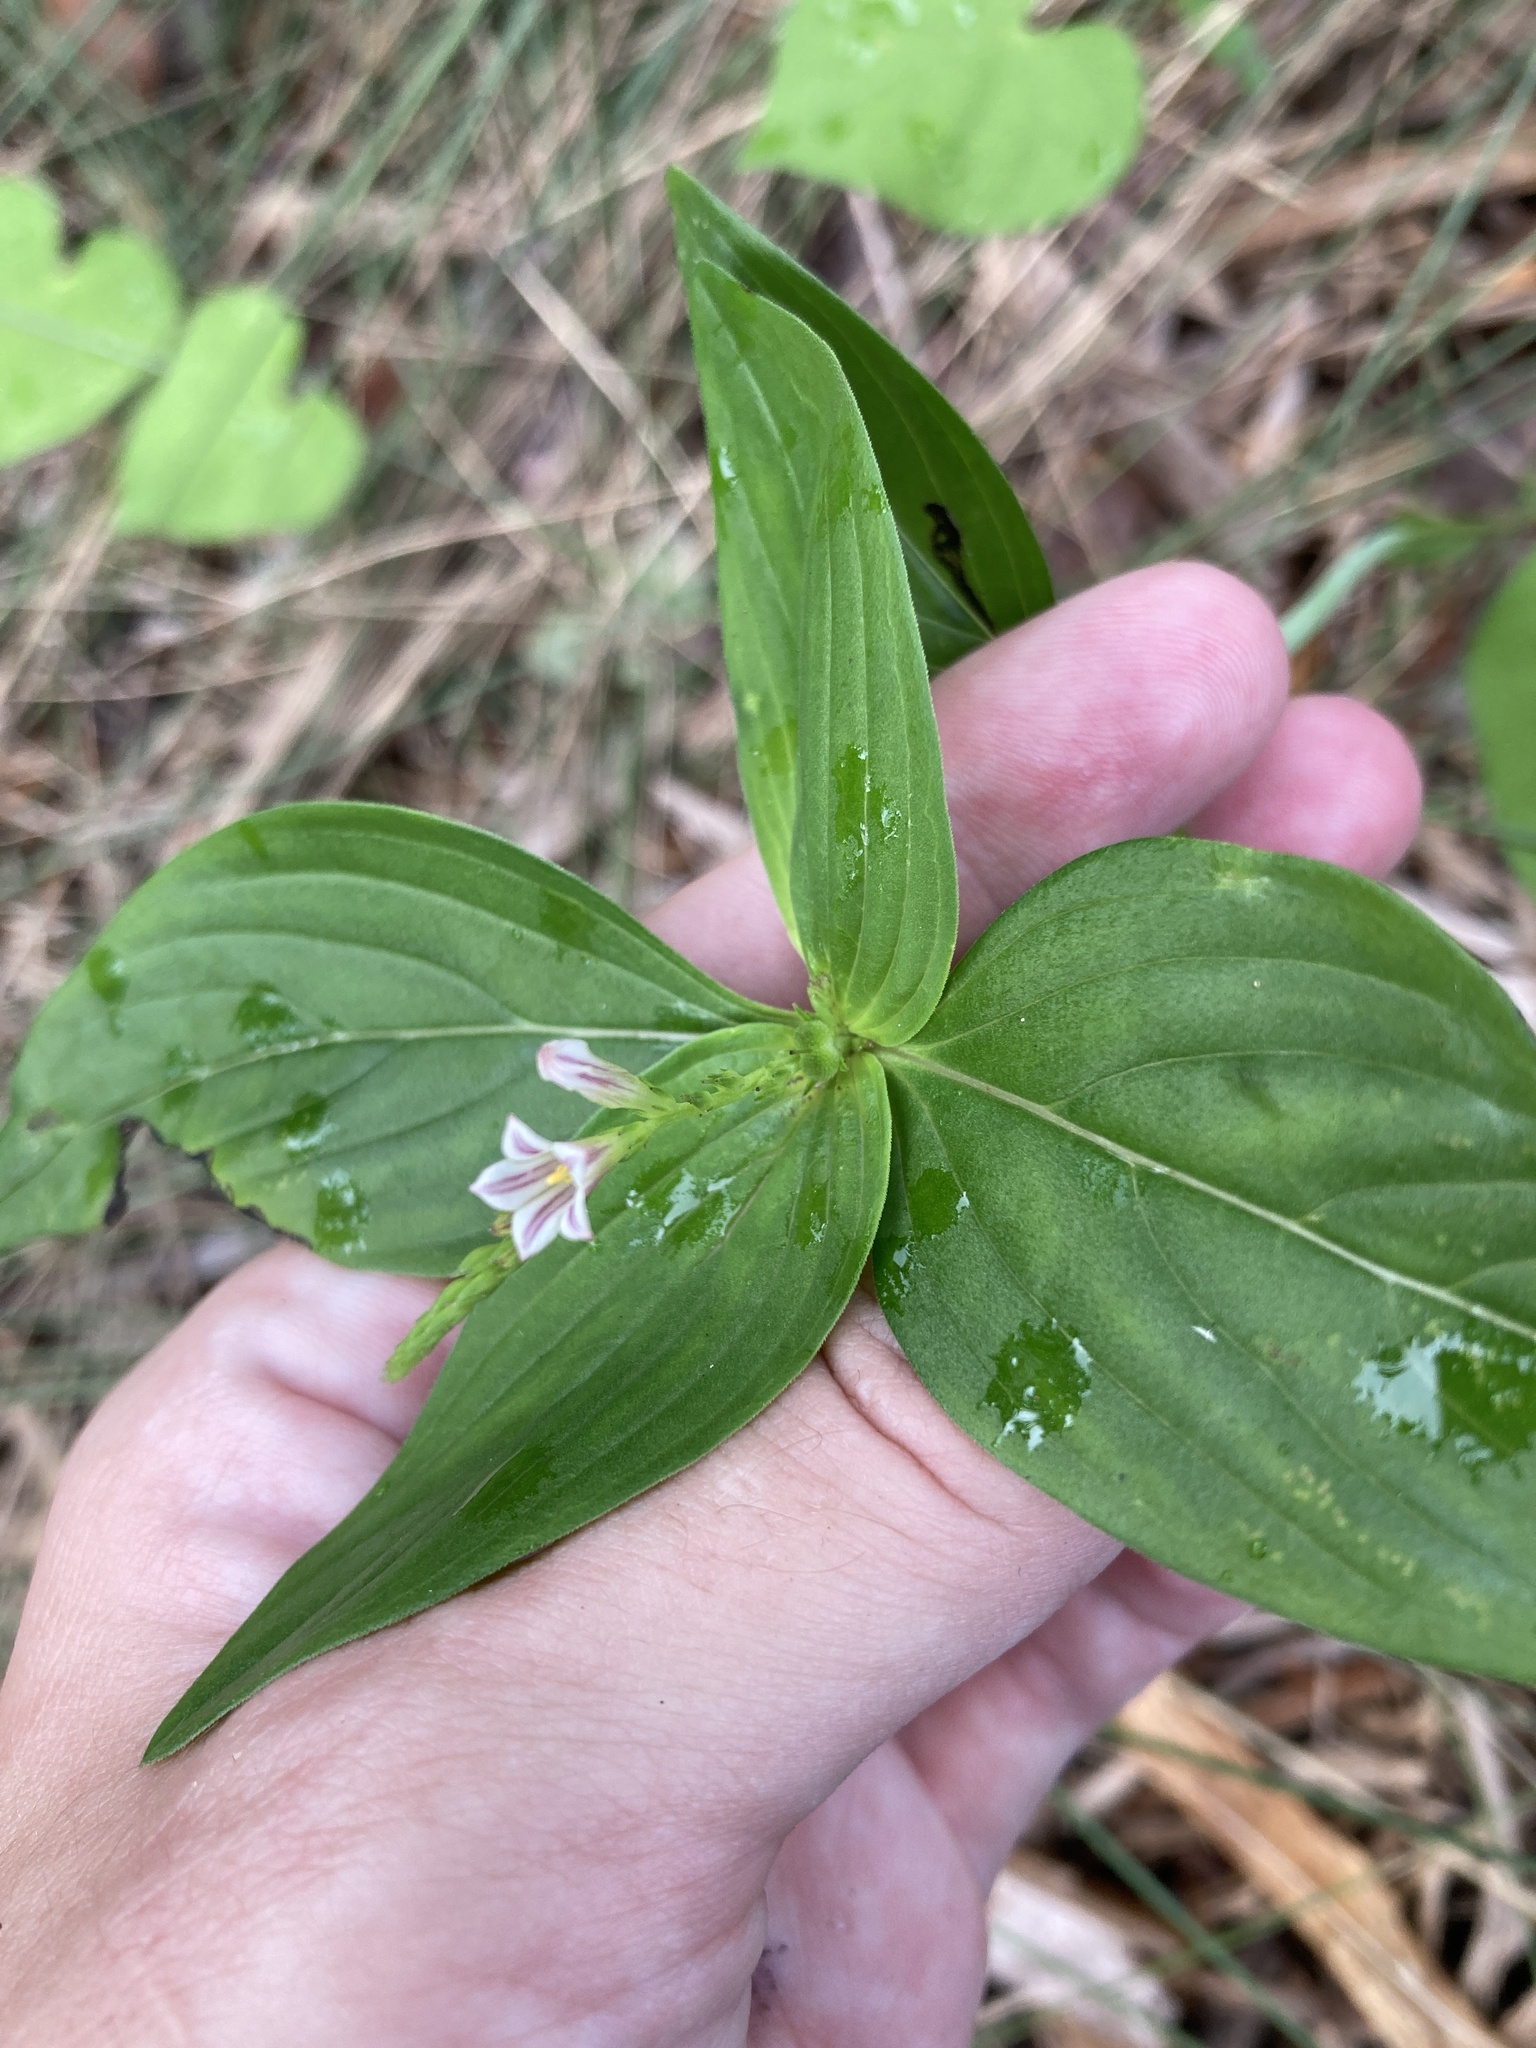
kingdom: Plantae
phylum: Tracheophyta
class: Magnoliopsida
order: Gentianales
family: Loganiaceae
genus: Spigelia
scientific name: Spigelia anthelmia
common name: West indian-pink
